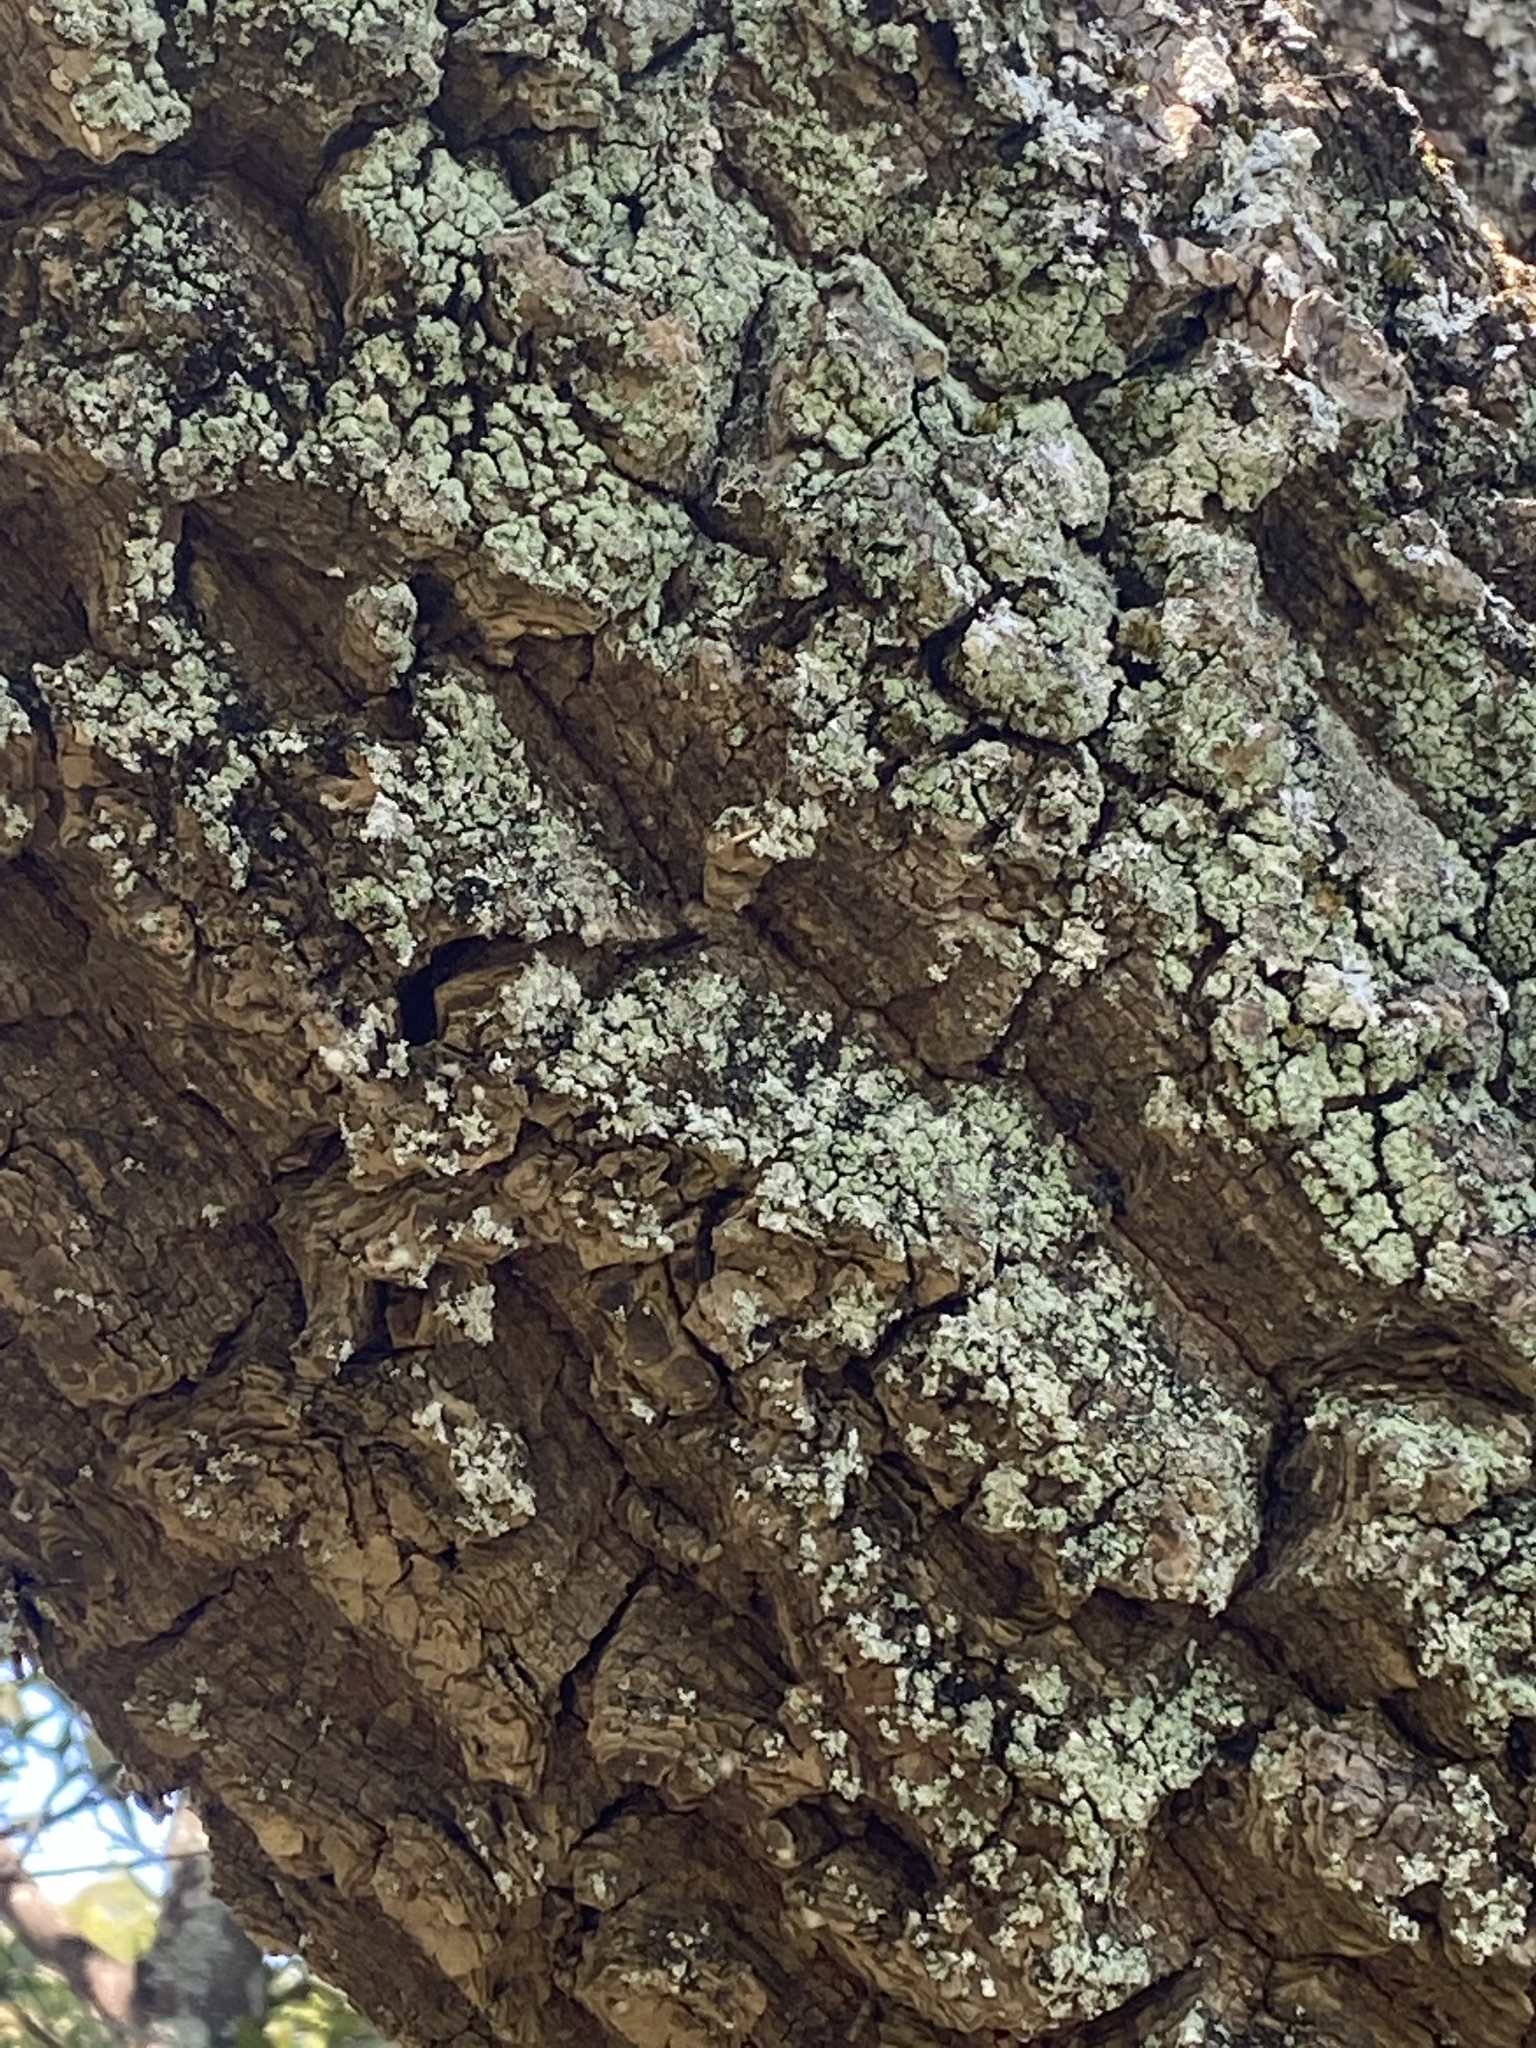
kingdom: Plantae
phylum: Tracheophyta
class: Magnoliopsida
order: Laurales
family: Lauraceae
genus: Umbellularia
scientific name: Umbellularia californica
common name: California bay
